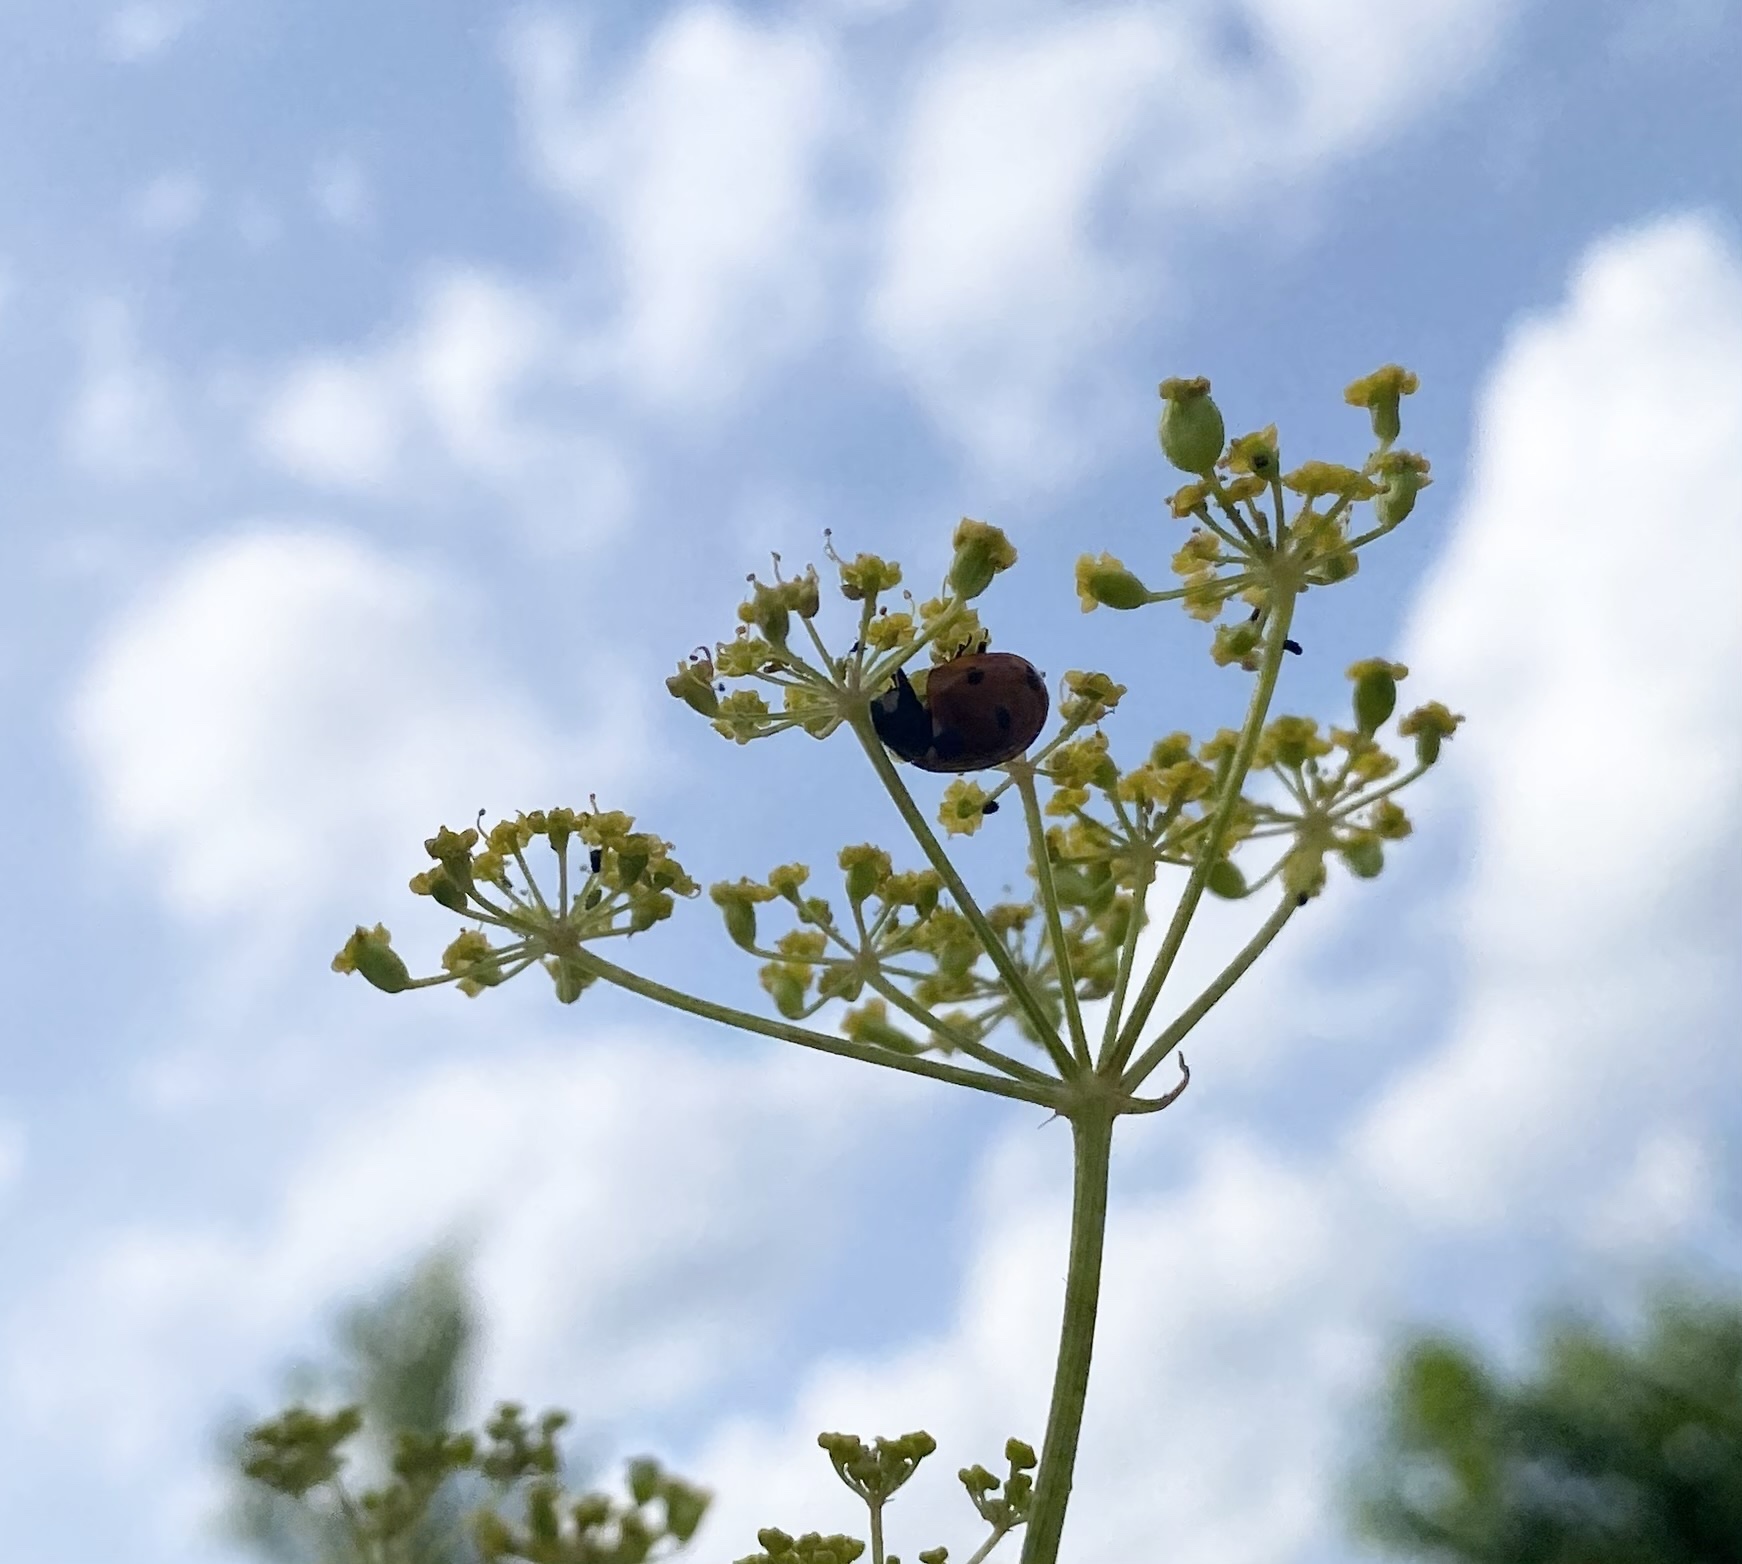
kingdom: Animalia
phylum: Arthropoda
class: Insecta
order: Coleoptera
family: Coccinellidae
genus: Coccinella
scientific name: Coccinella septempunctata
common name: Sevenspotted lady beetle
